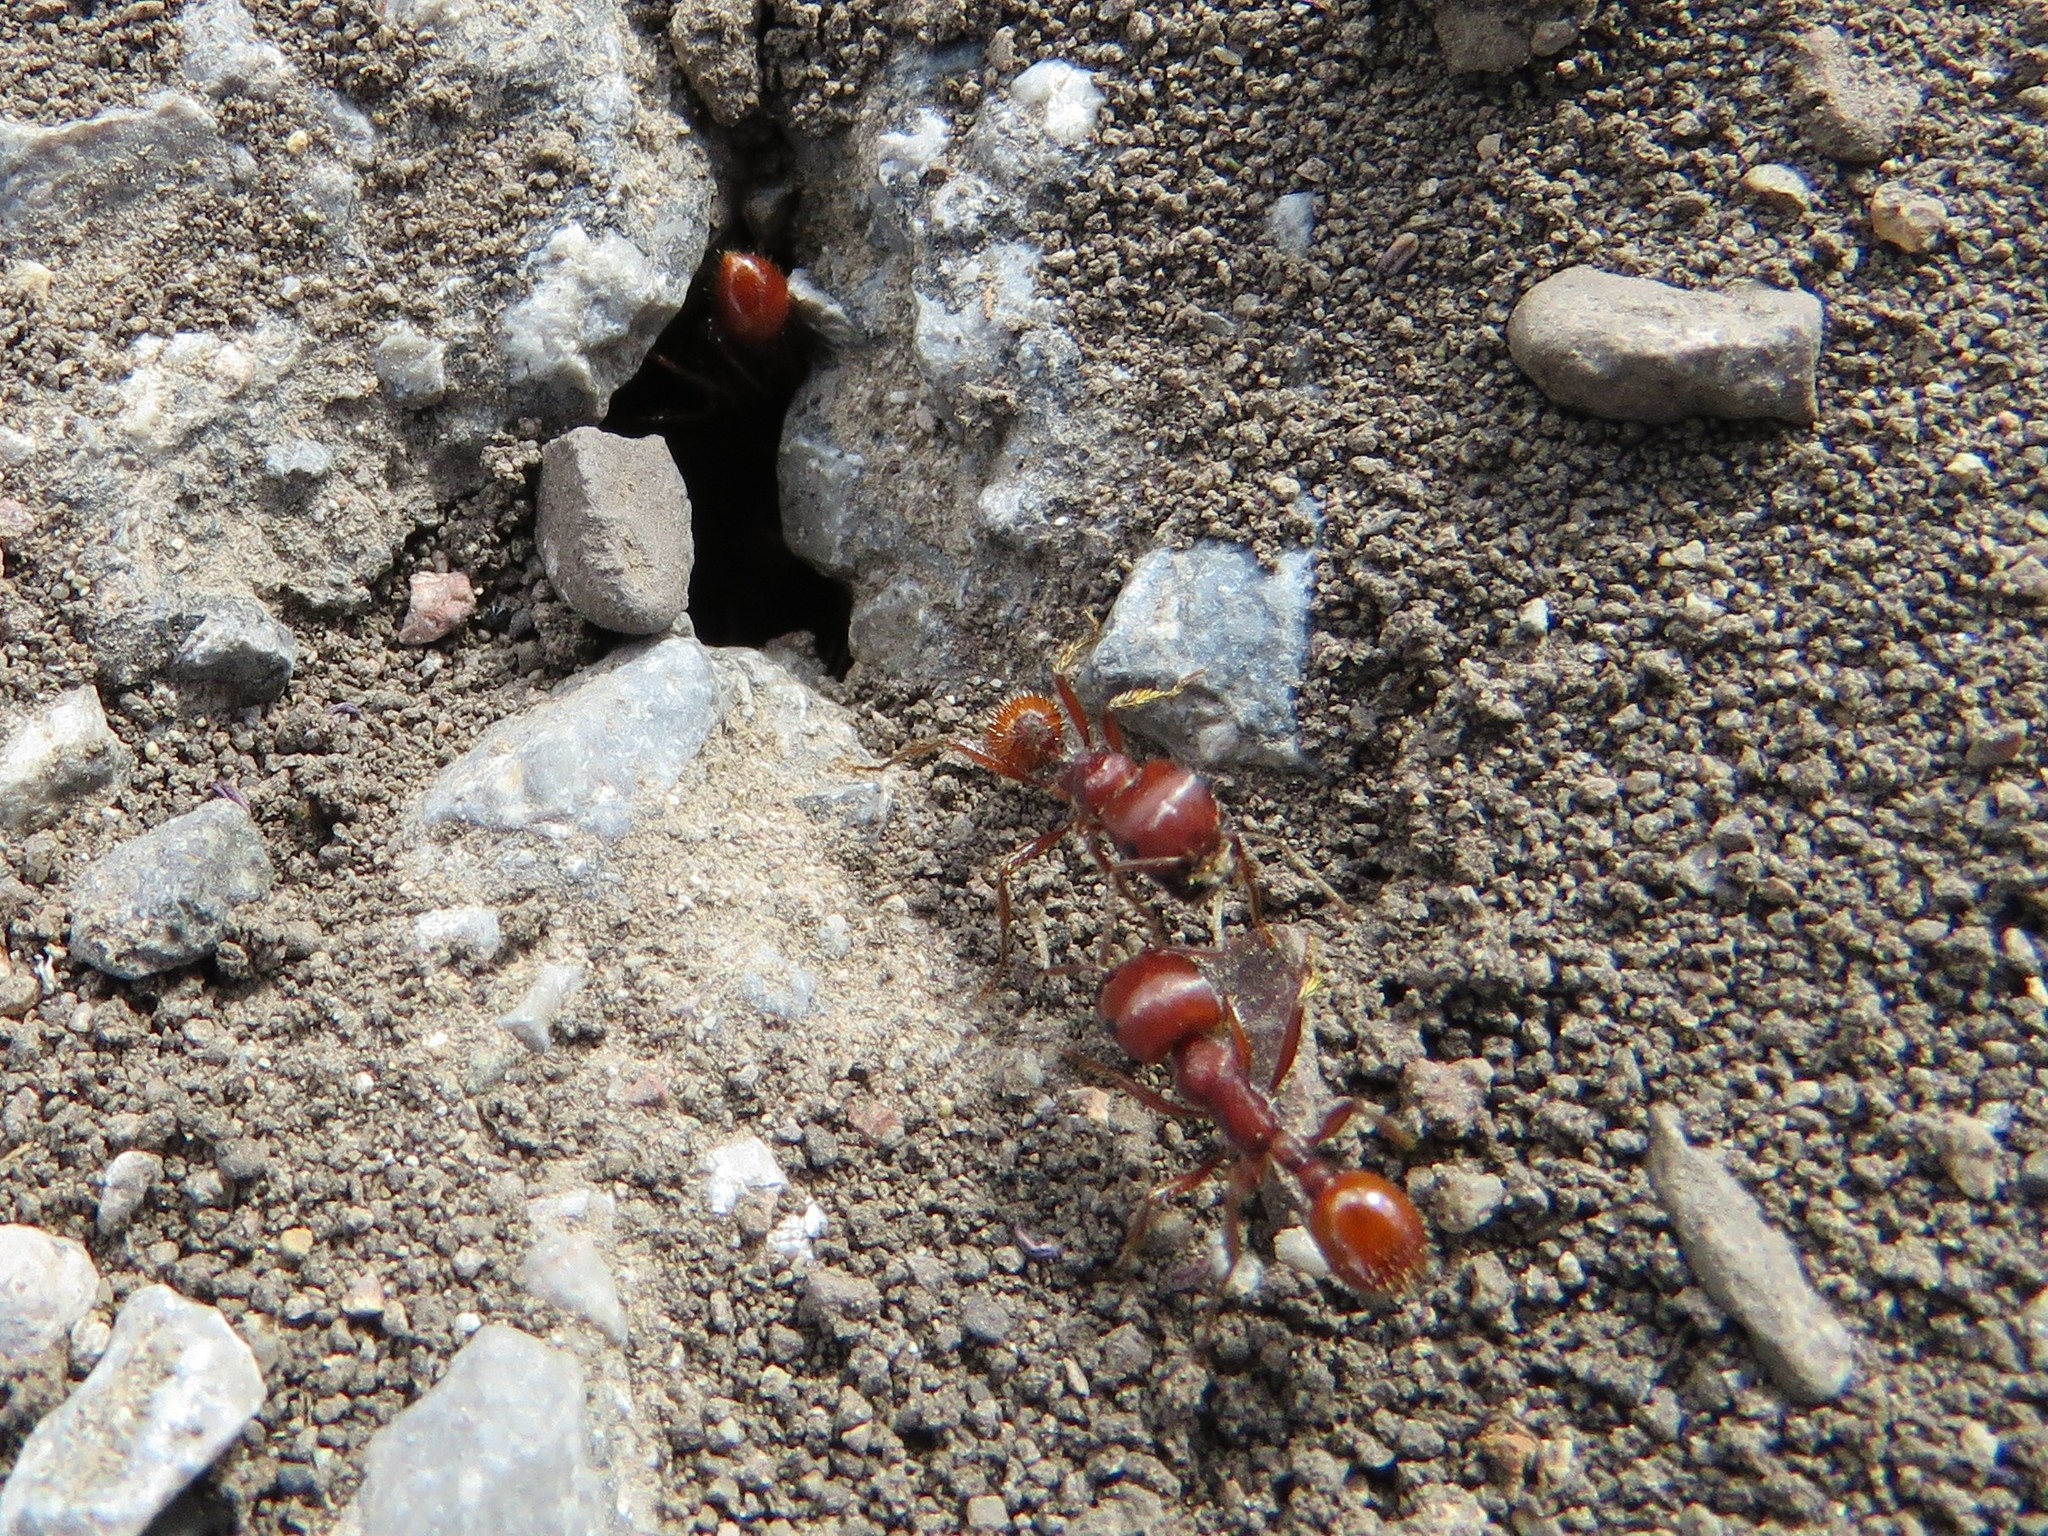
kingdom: Animalia
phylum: Arthropoda
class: Insecta
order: Hymenoptera
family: Formicidae
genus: Pogonomyrmex
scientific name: Pogonomyrmex barbatus
